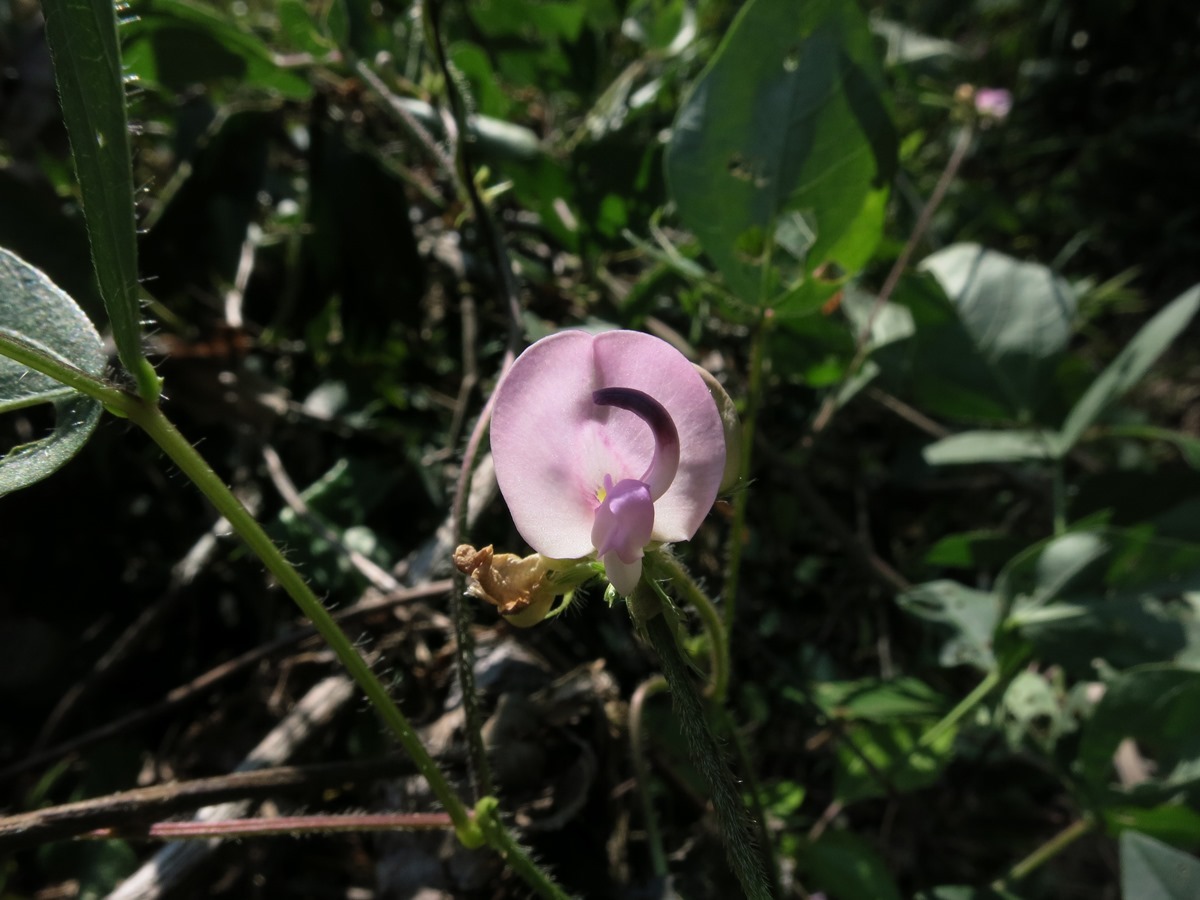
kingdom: Plantae
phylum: Tracheophyta
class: Magnoliopsida
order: Fabales
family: Fabaceae
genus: Strophostyles
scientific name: Strophostyles helvola
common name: Trailing wild bean
